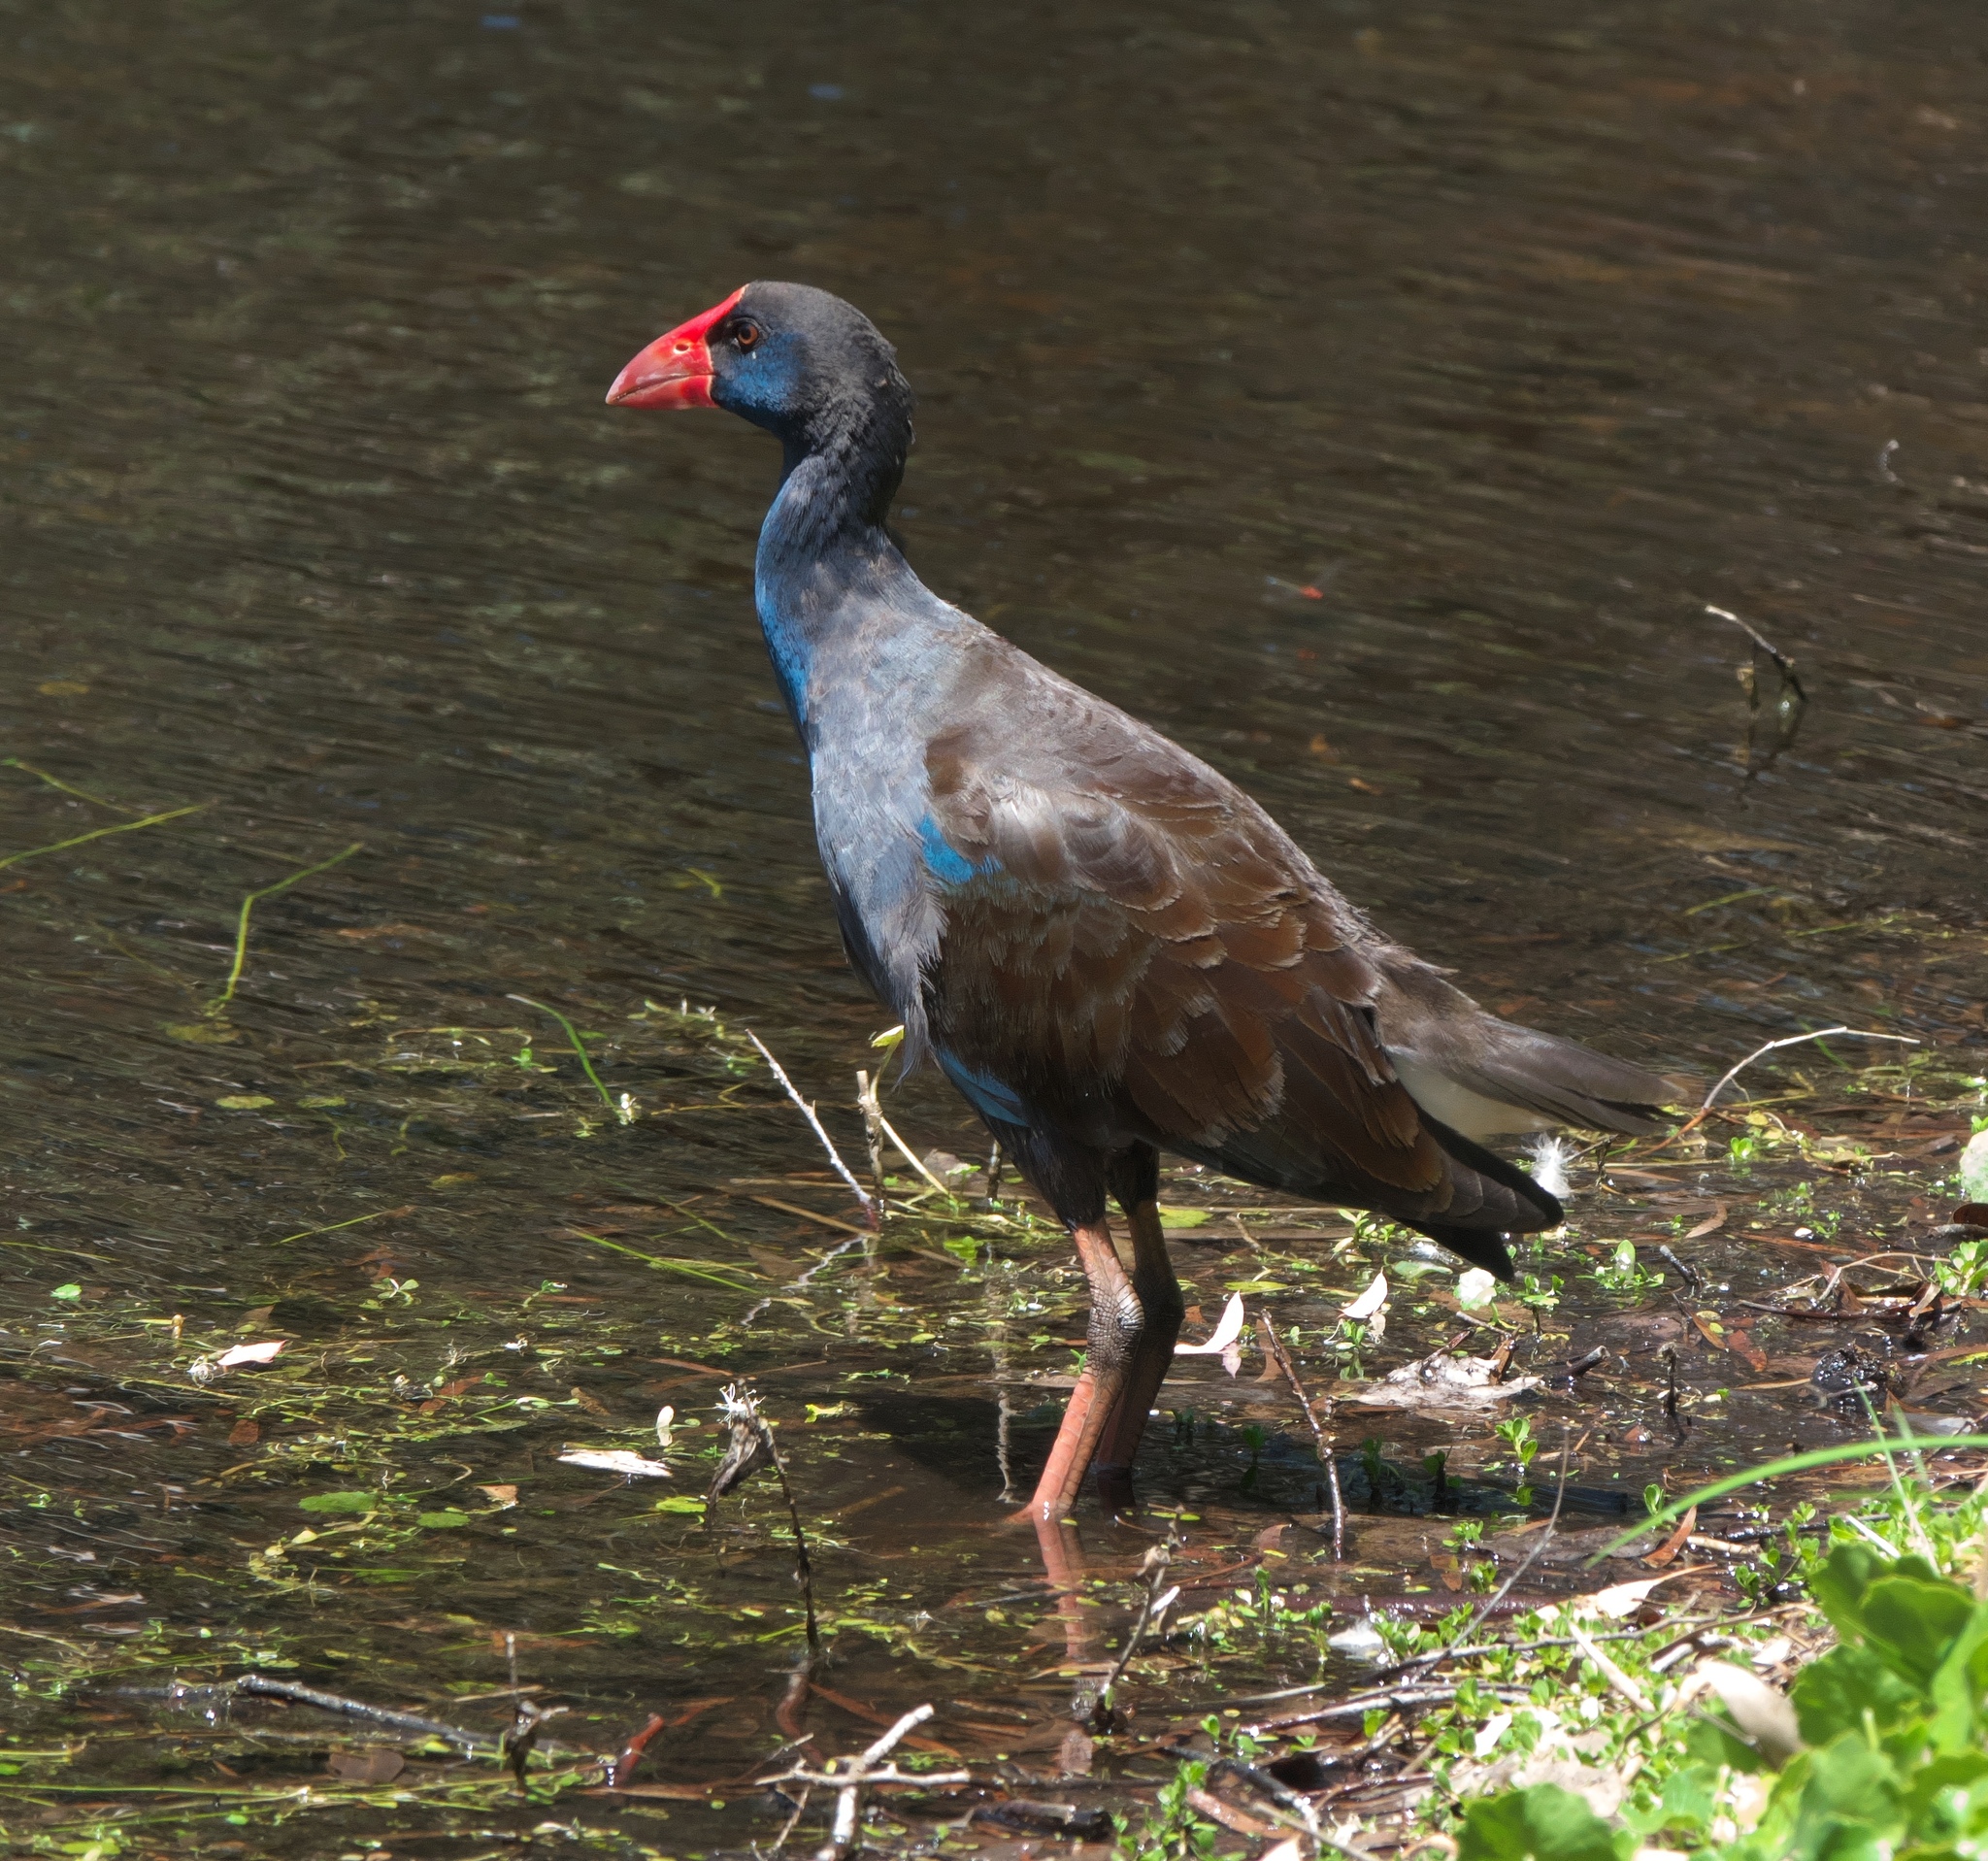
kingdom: Animalia
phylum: Chordata
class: Aves
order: Gruiformes
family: Rallidae
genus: Porphyrio
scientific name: Porphyrio melanotus
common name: Australasian swamphen
